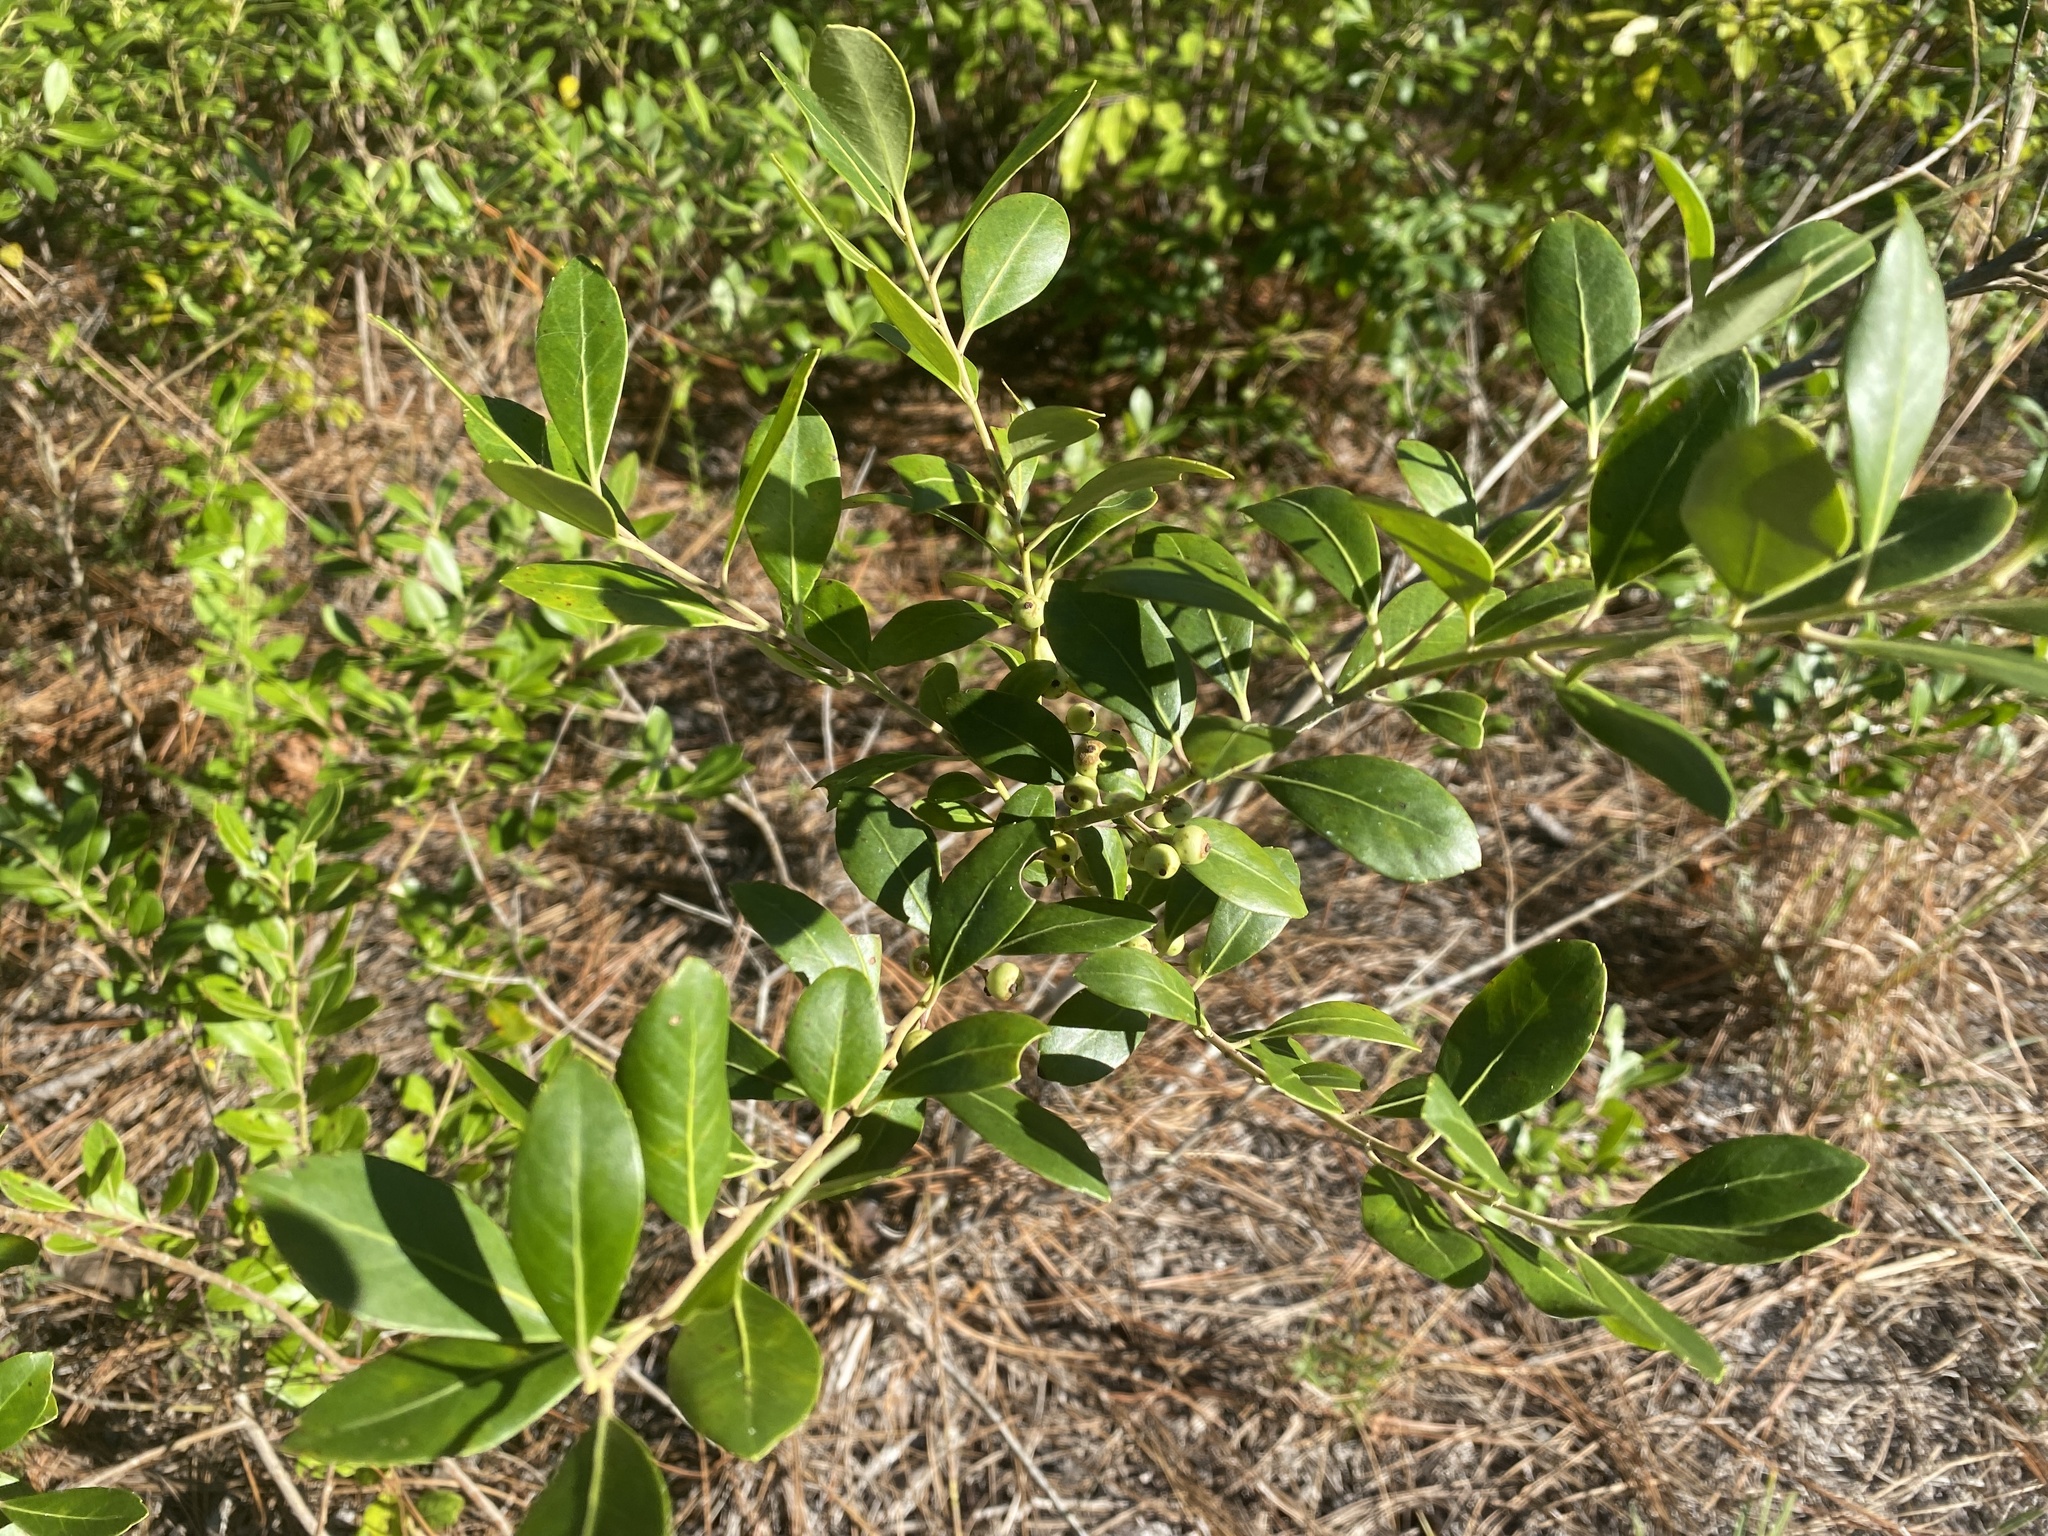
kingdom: Plantae
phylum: Tracheophyta
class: Magnoliopsida
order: Aquifoliales
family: Aquifoliaceae
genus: Ilex
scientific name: Ilex glabra
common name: Bitter gallberry
